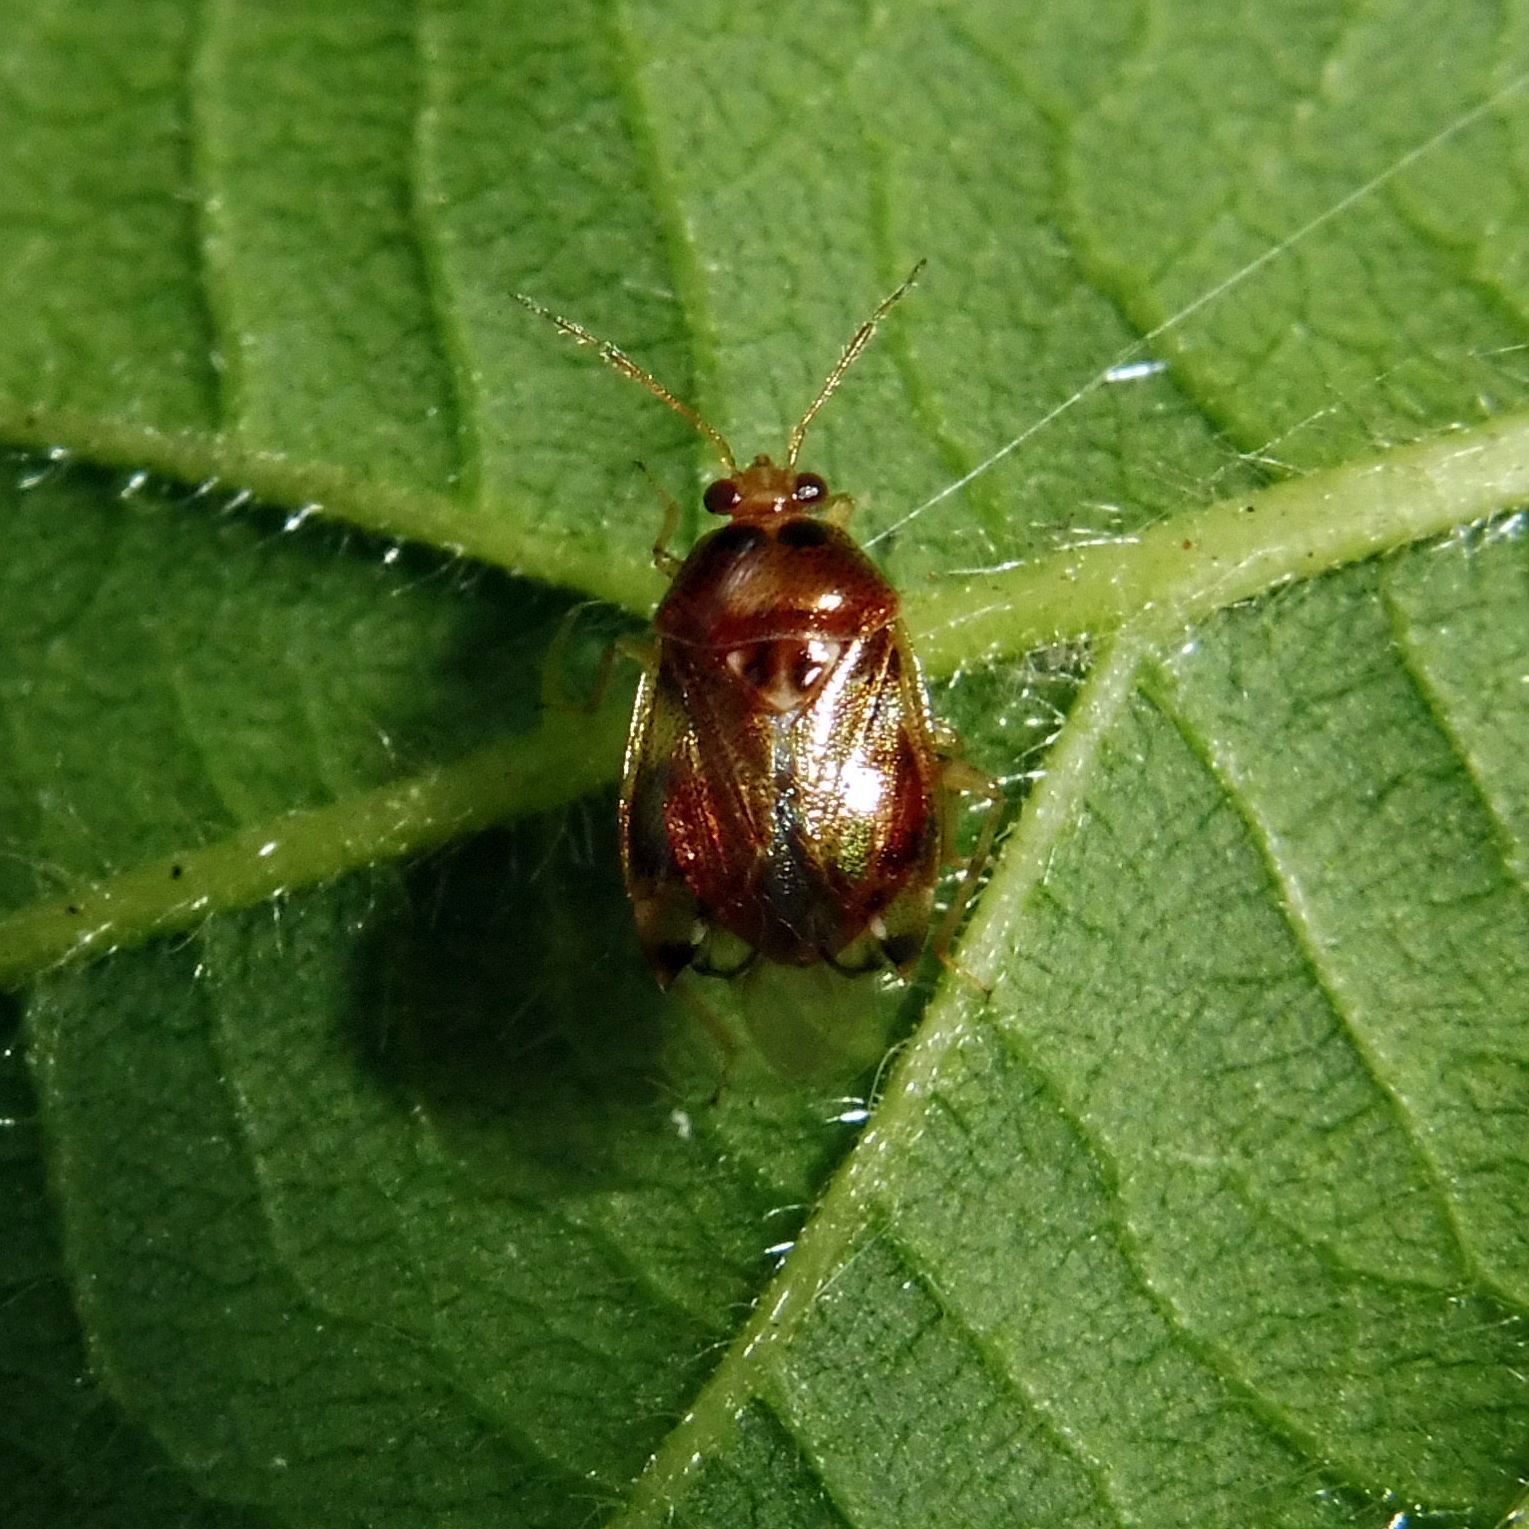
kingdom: Animalia
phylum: Arthropoda
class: Insecta
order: Hemiptera
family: Miridae
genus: Deraeocoris
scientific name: Deraeocoris lutescens
